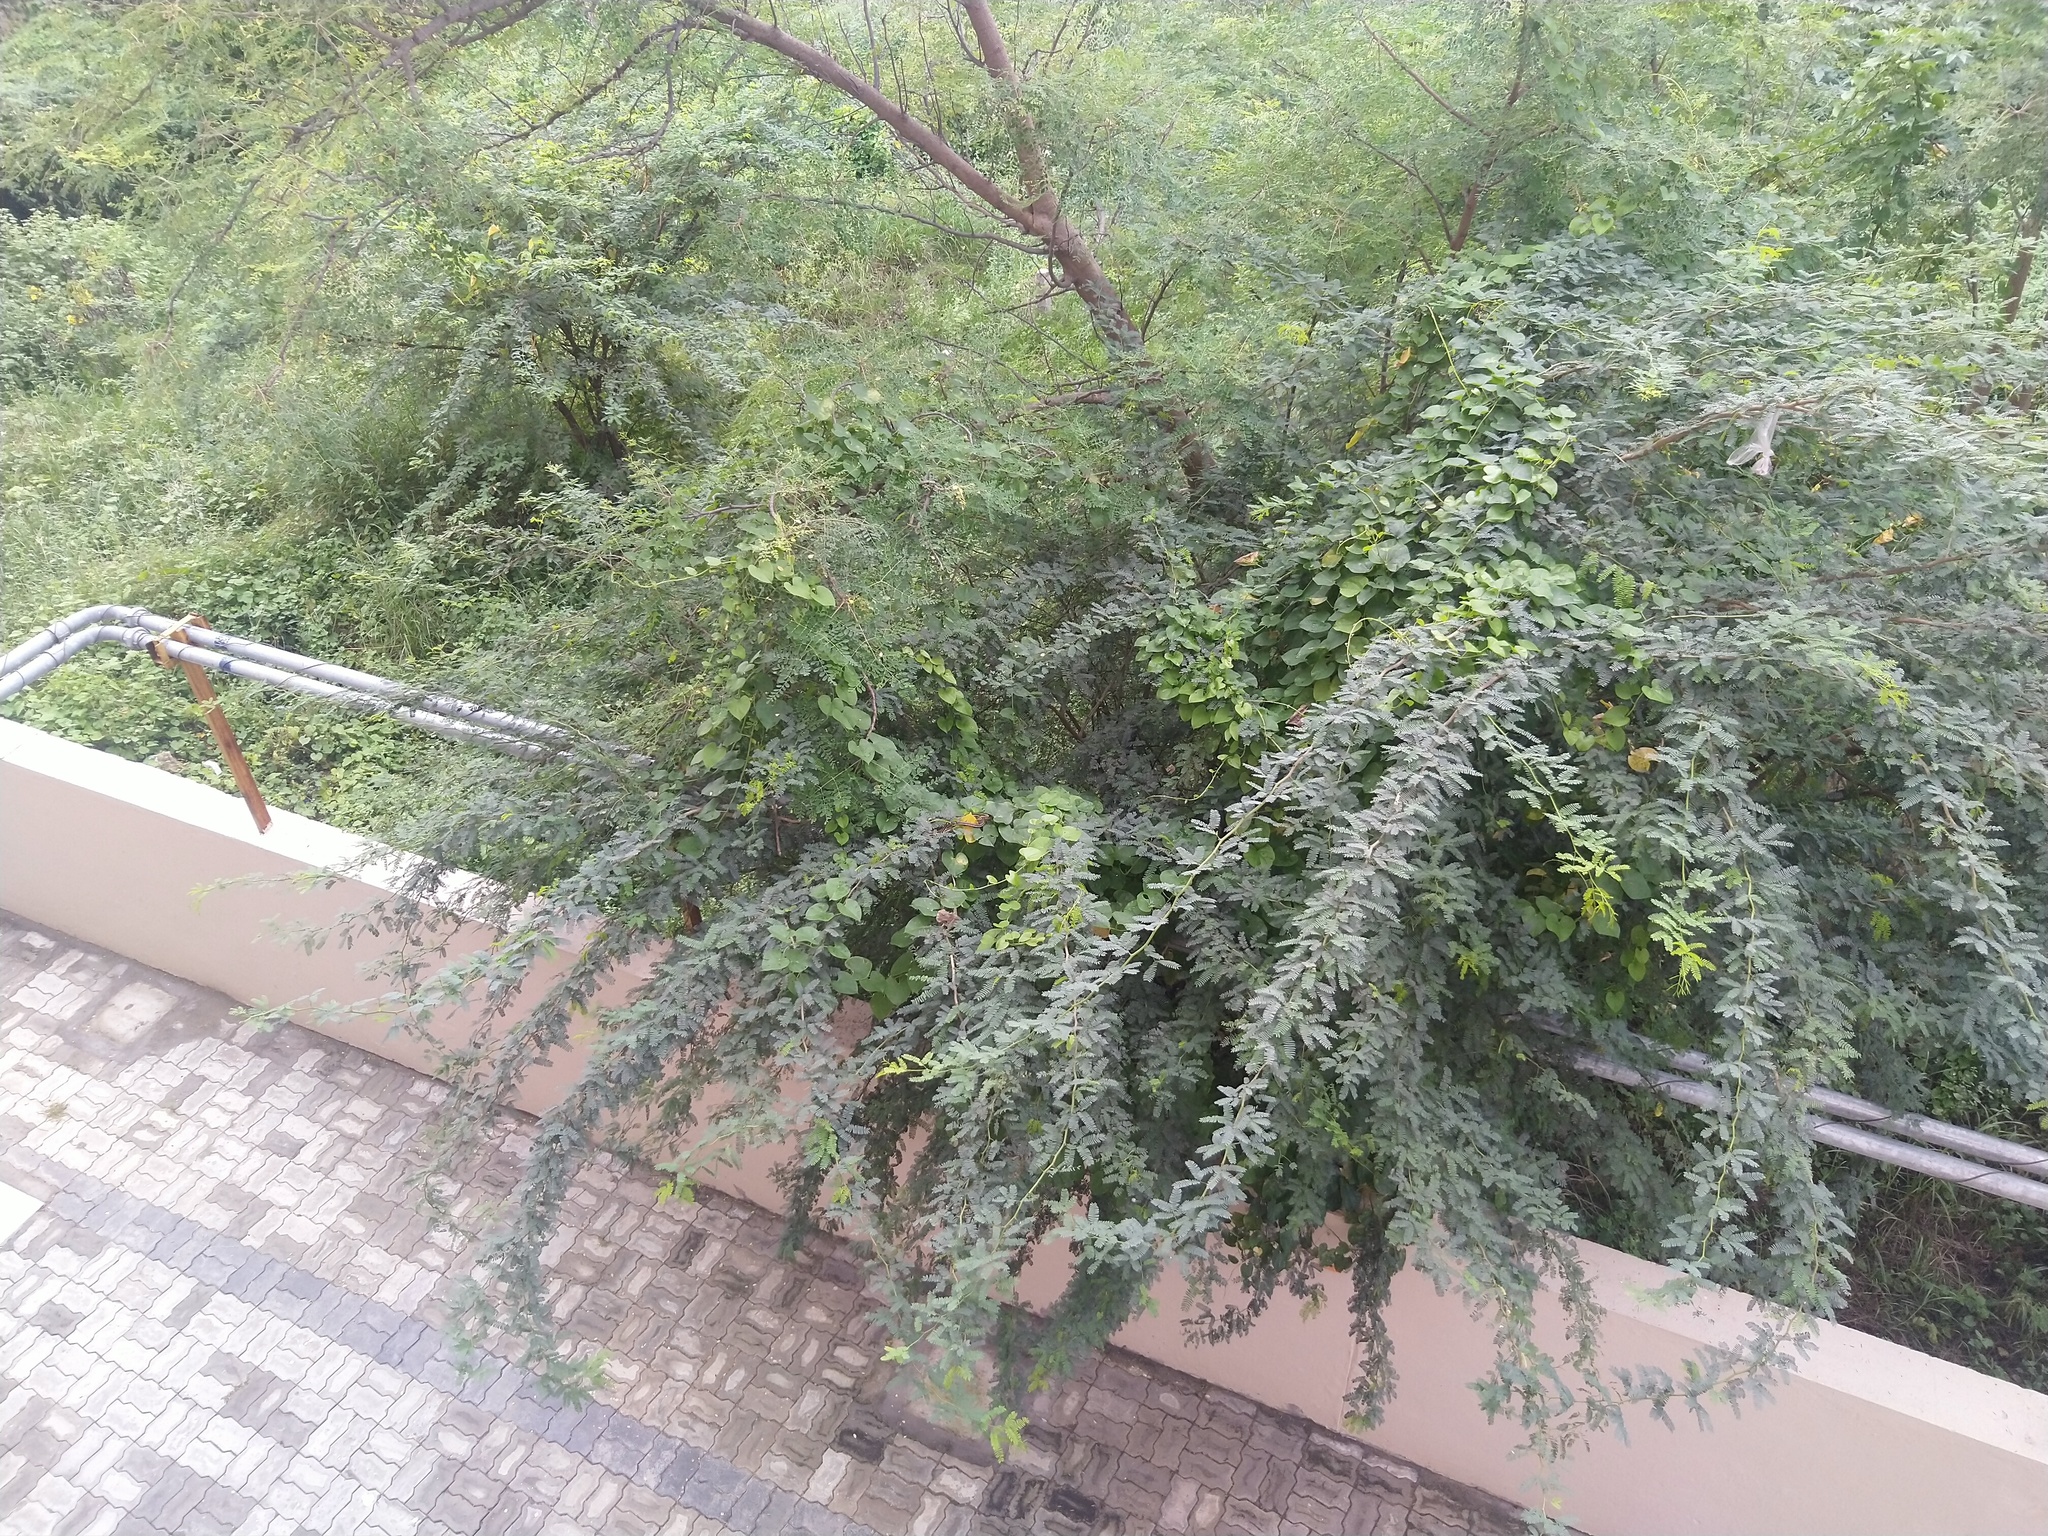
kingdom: Plantae
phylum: Tracheophyta
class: Magnoliopsida
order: Fabales
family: Fabaceae
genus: Prosopis
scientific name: Prosopis juliflora
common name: Mesquite
